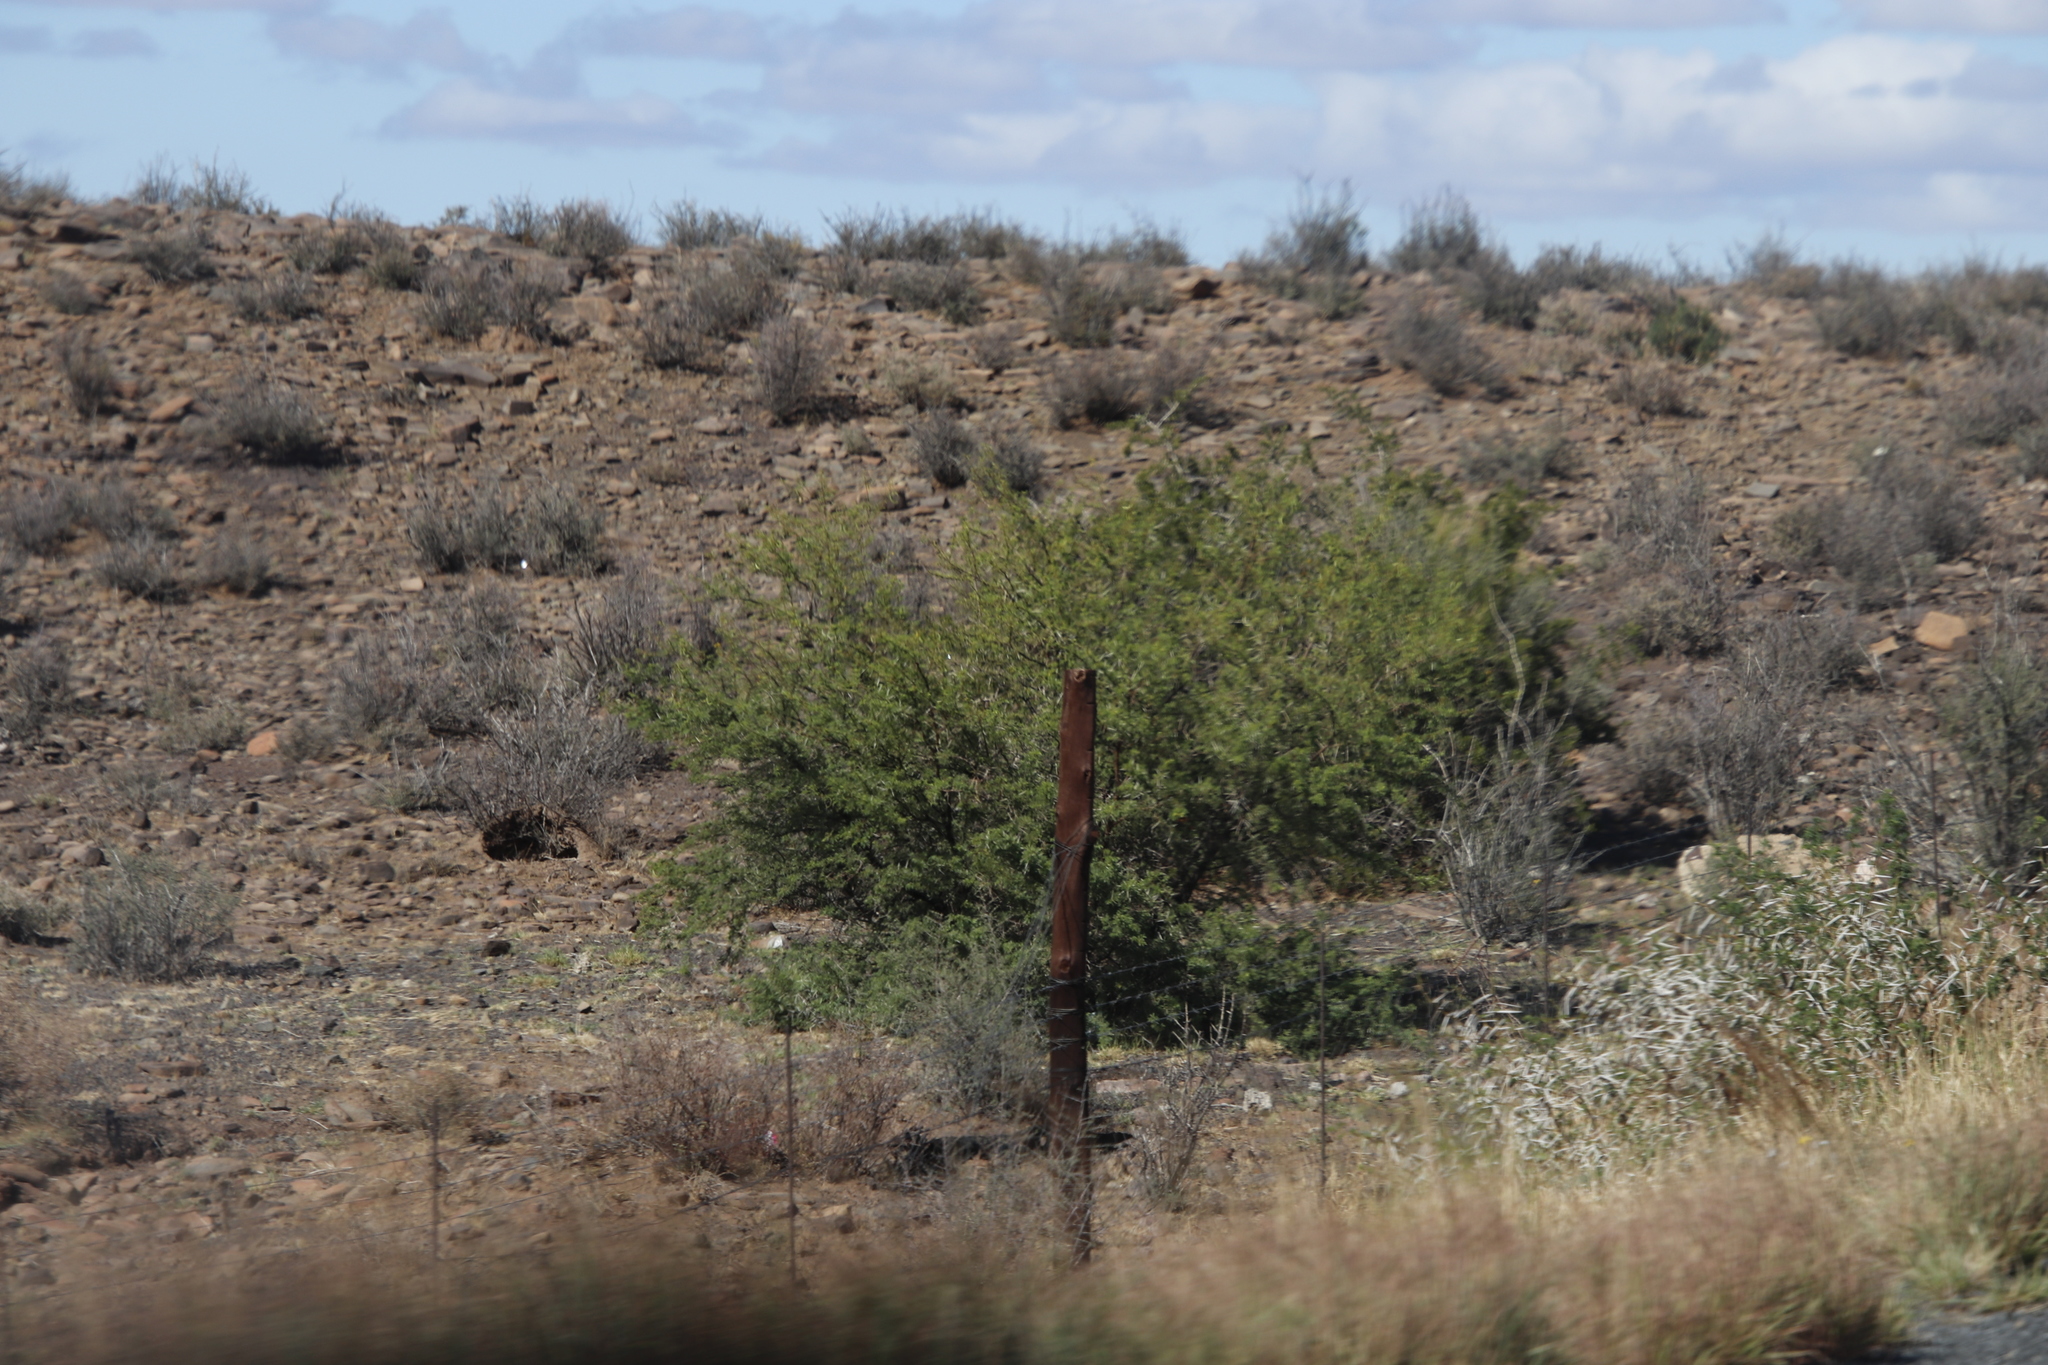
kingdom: Plantae
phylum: Tracheophyta
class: Magnoliopsida
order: Fabales
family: Fabaceae
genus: Vachellia
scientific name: Vachellia karroo
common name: Sweet thorn
